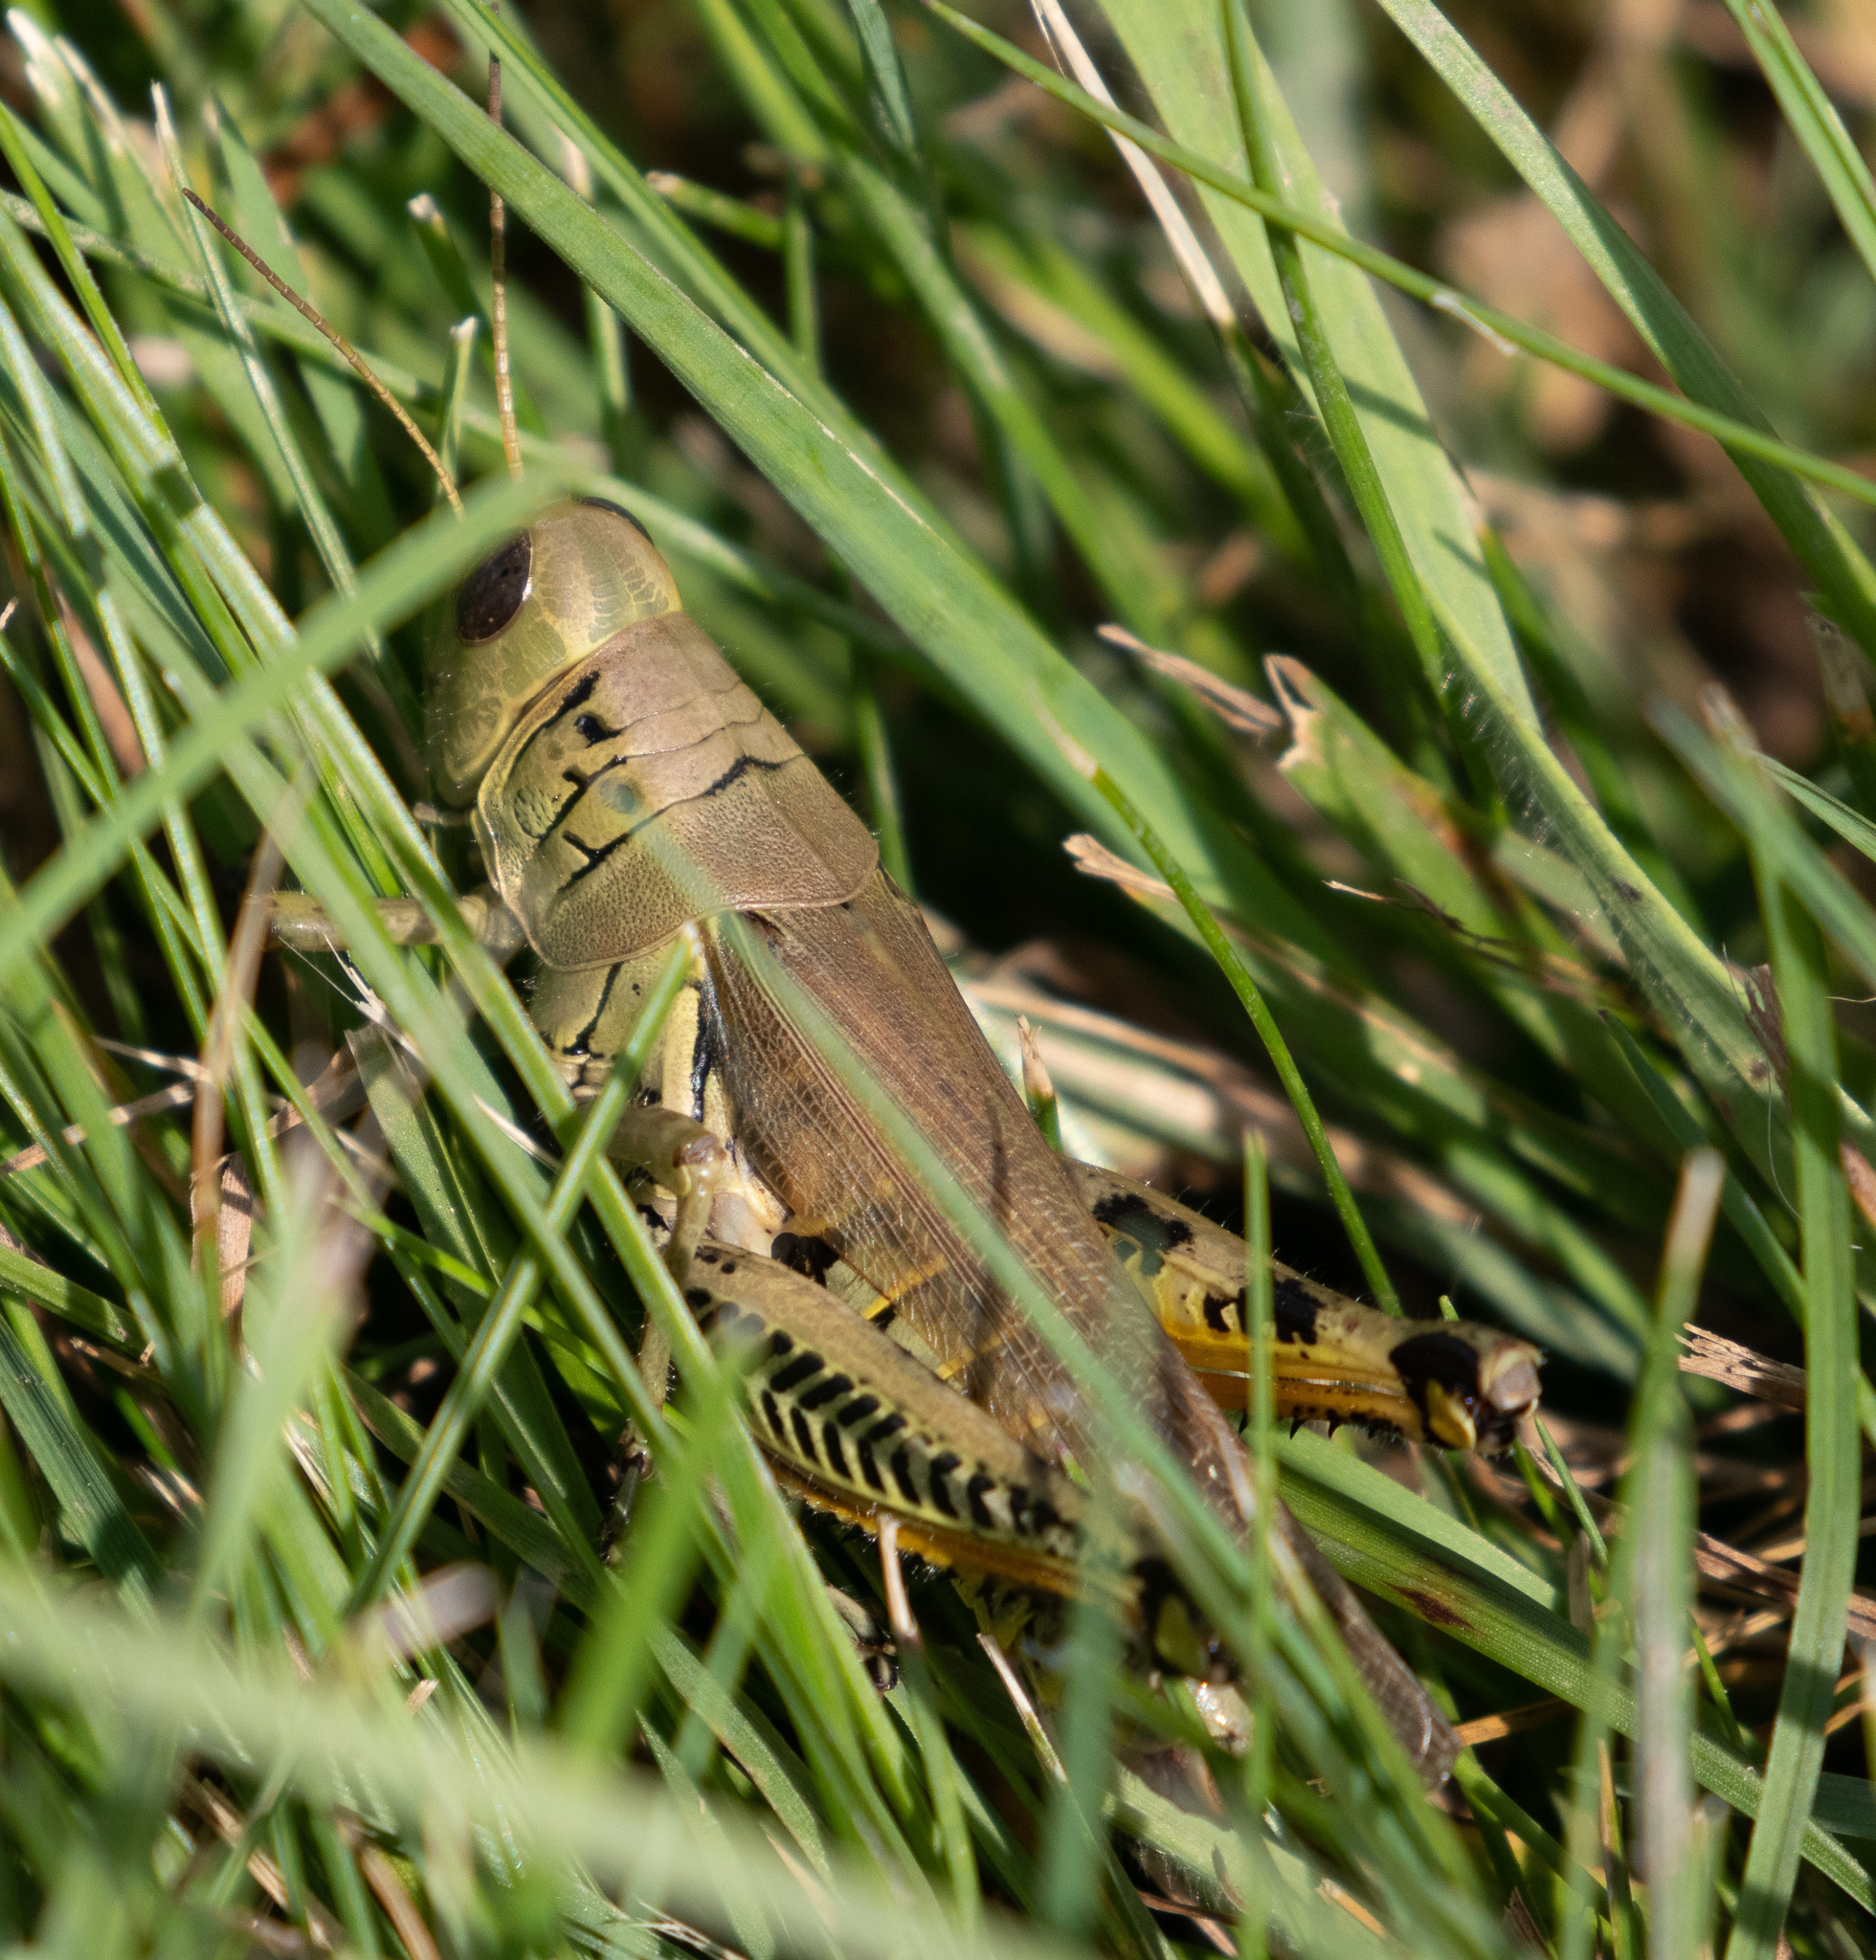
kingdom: Animalia
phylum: Arthropoda
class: Insecta
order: Orthoptera
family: Acrididae
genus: Melanoplus
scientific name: Melanoplus differentialis
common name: Differential grasshopper
